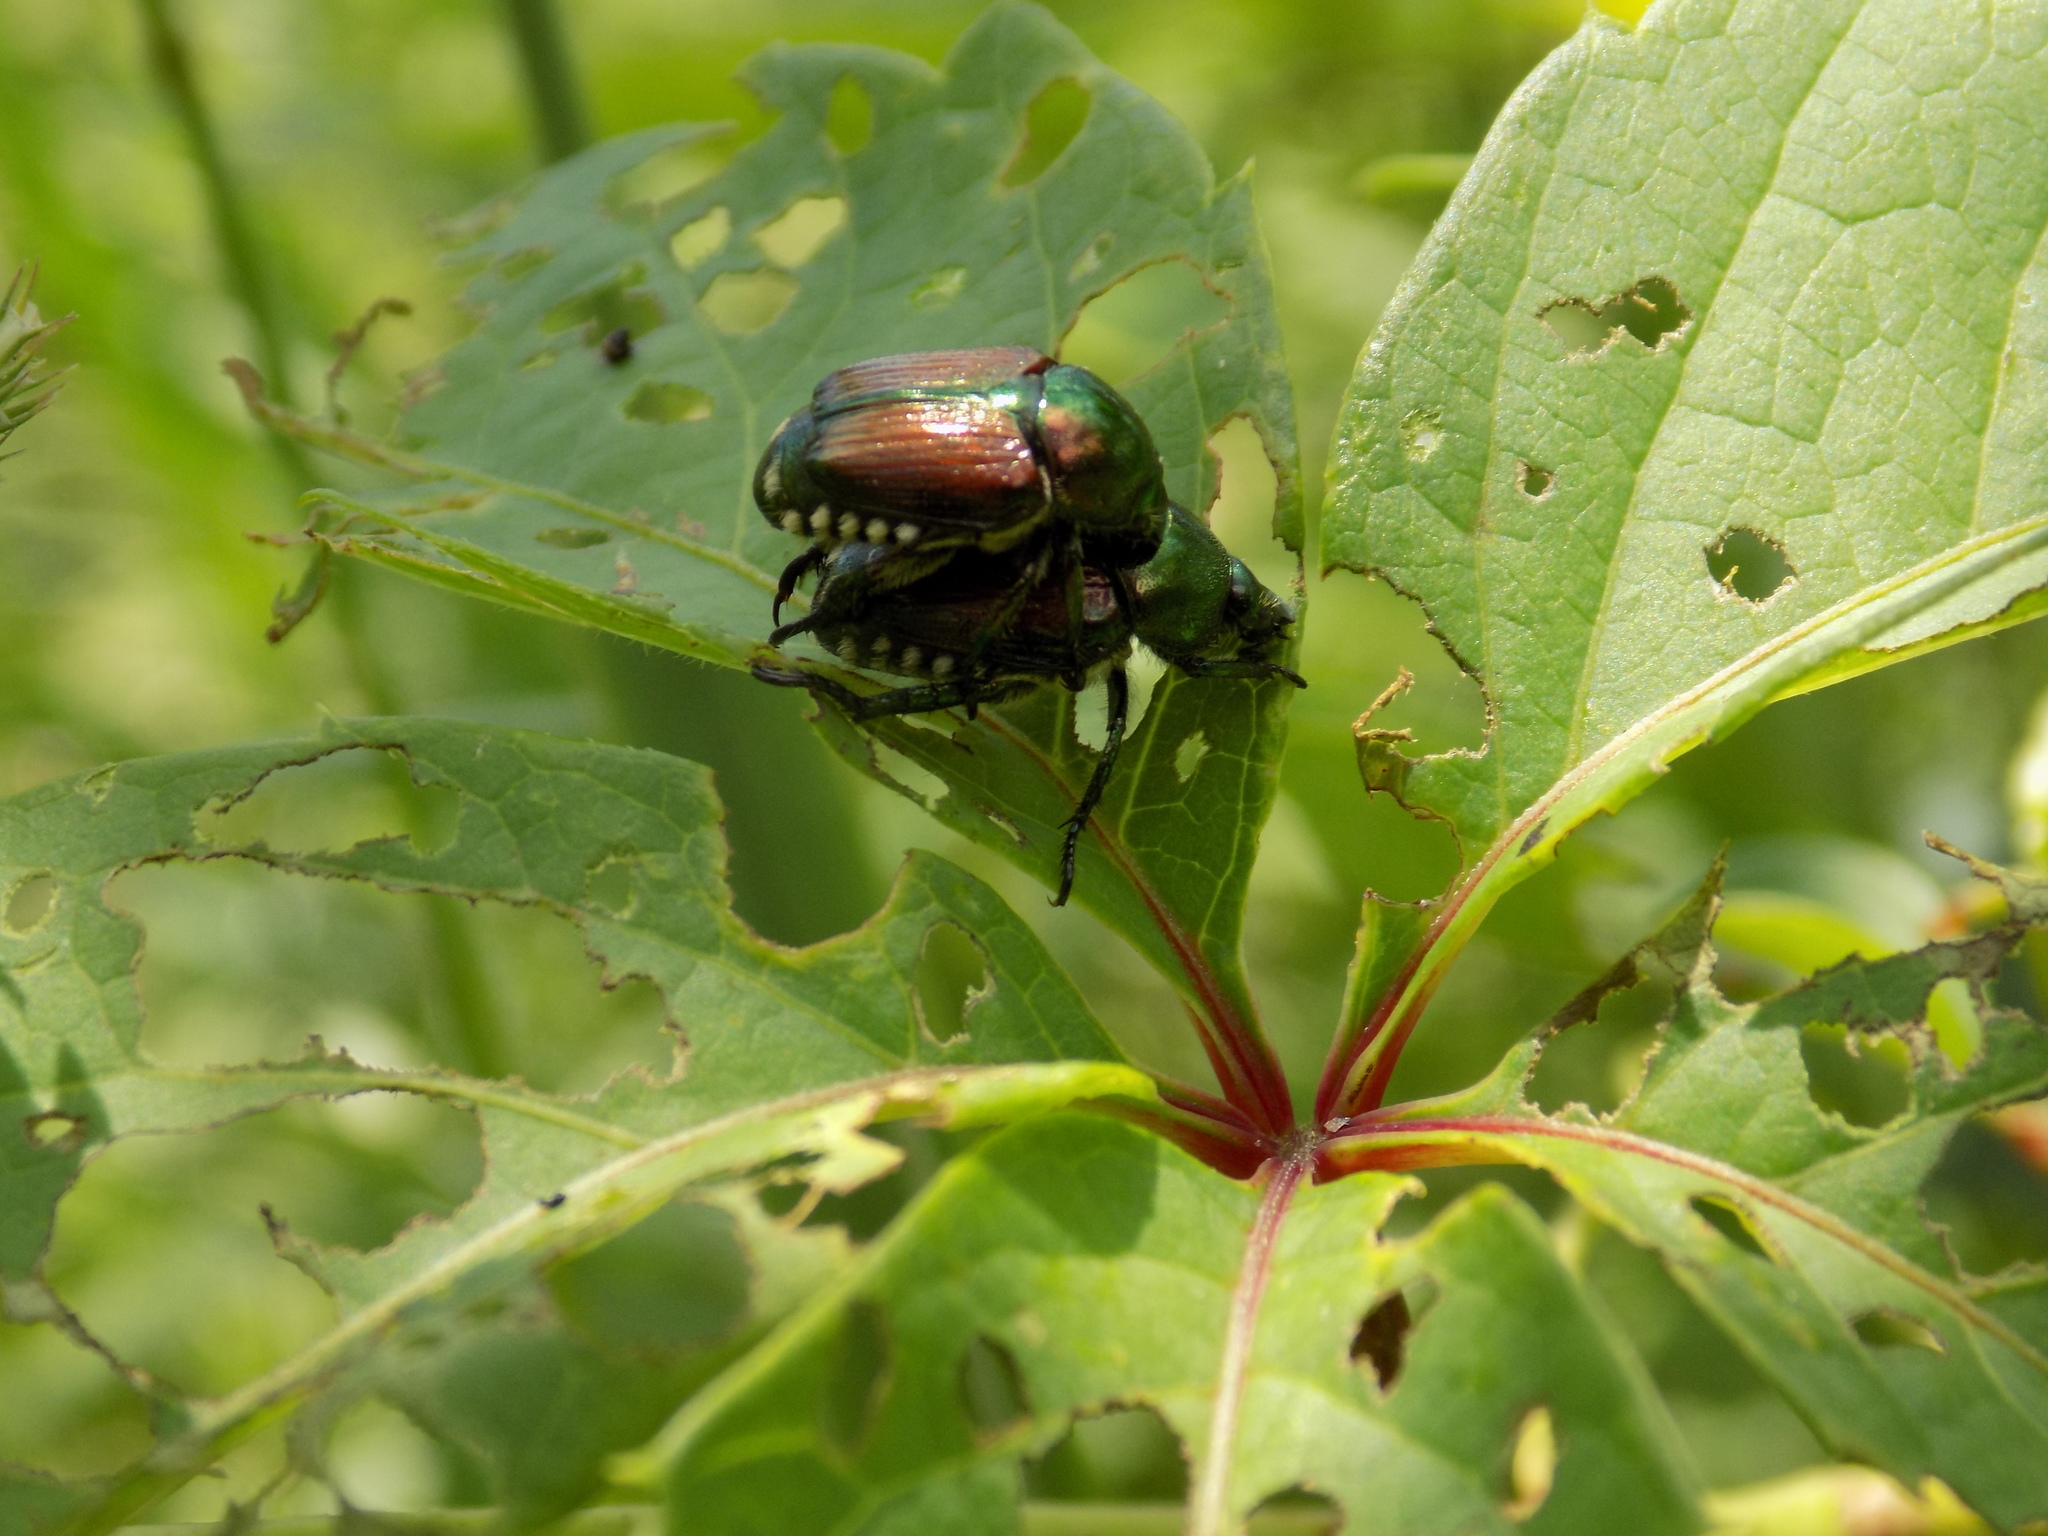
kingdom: Animalia
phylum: Arthropoda
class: Insecta
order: Coleoptera
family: Scarabaeidae
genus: Popillia
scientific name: Popillia japonica
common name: Japanese beetle
